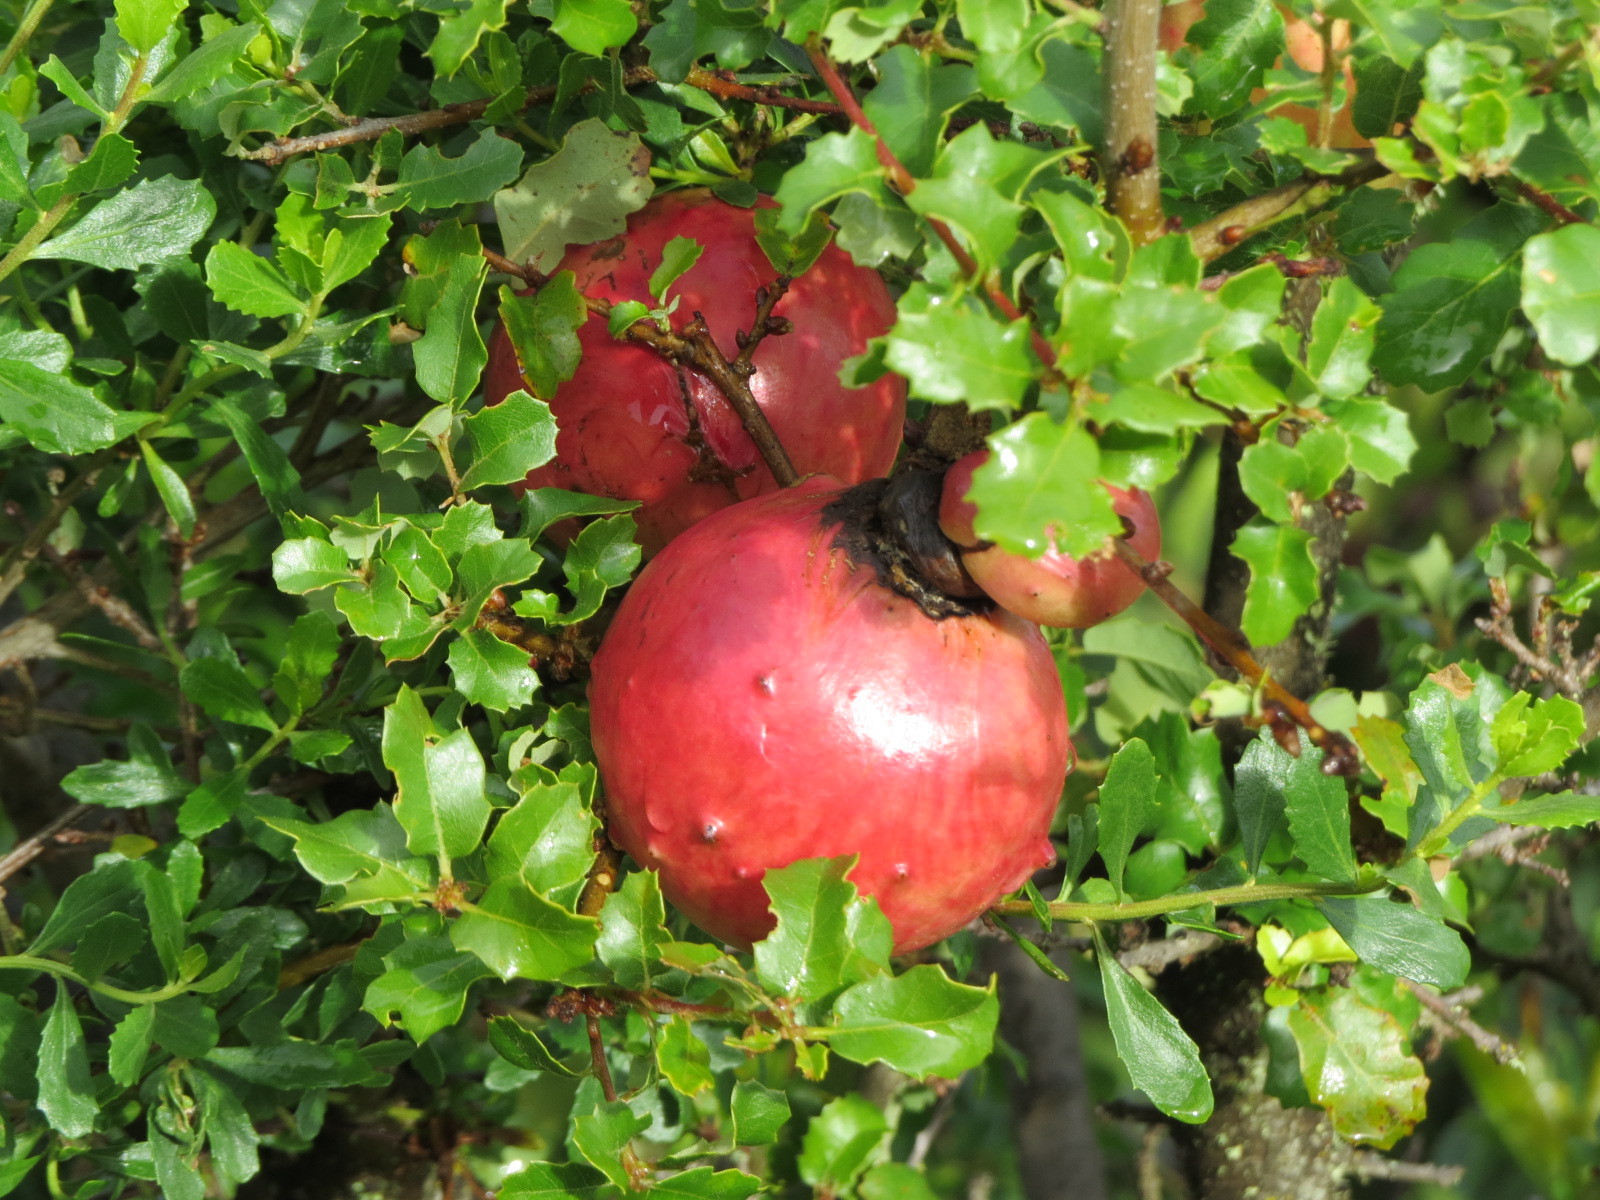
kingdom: Animalia
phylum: Arthropoda
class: Insecta
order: Hymenoptera
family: Cynipidae
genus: Andricus
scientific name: Andricus quercuscalifornicus
